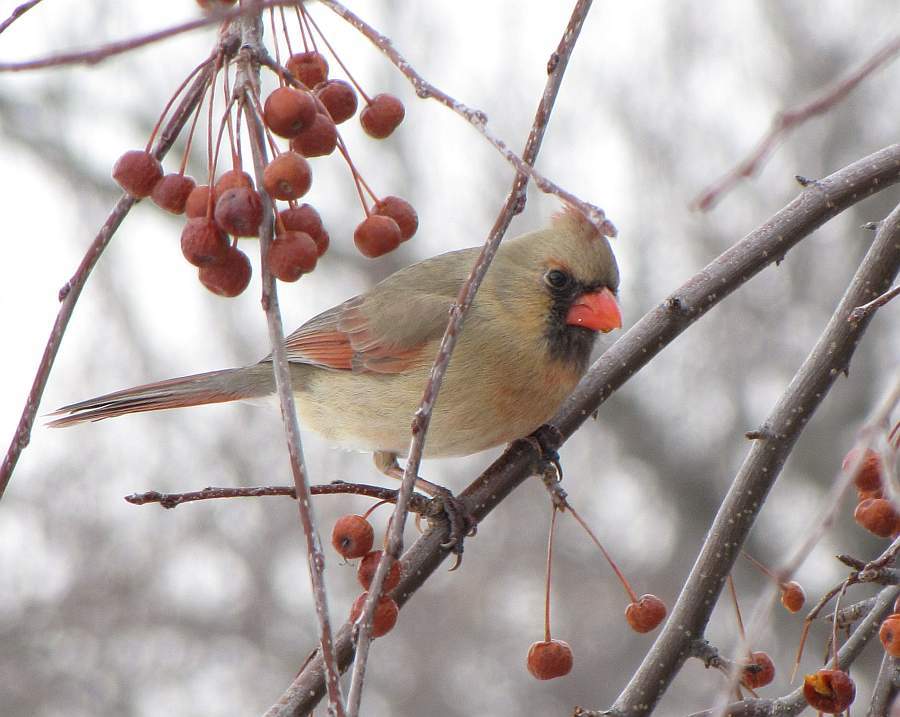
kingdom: Animalia
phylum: Chordata
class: Aves
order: Passeriformes
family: Cardinalidae
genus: Cardinalis
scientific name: Cardinalis cardinalis
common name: Northern cardinal
